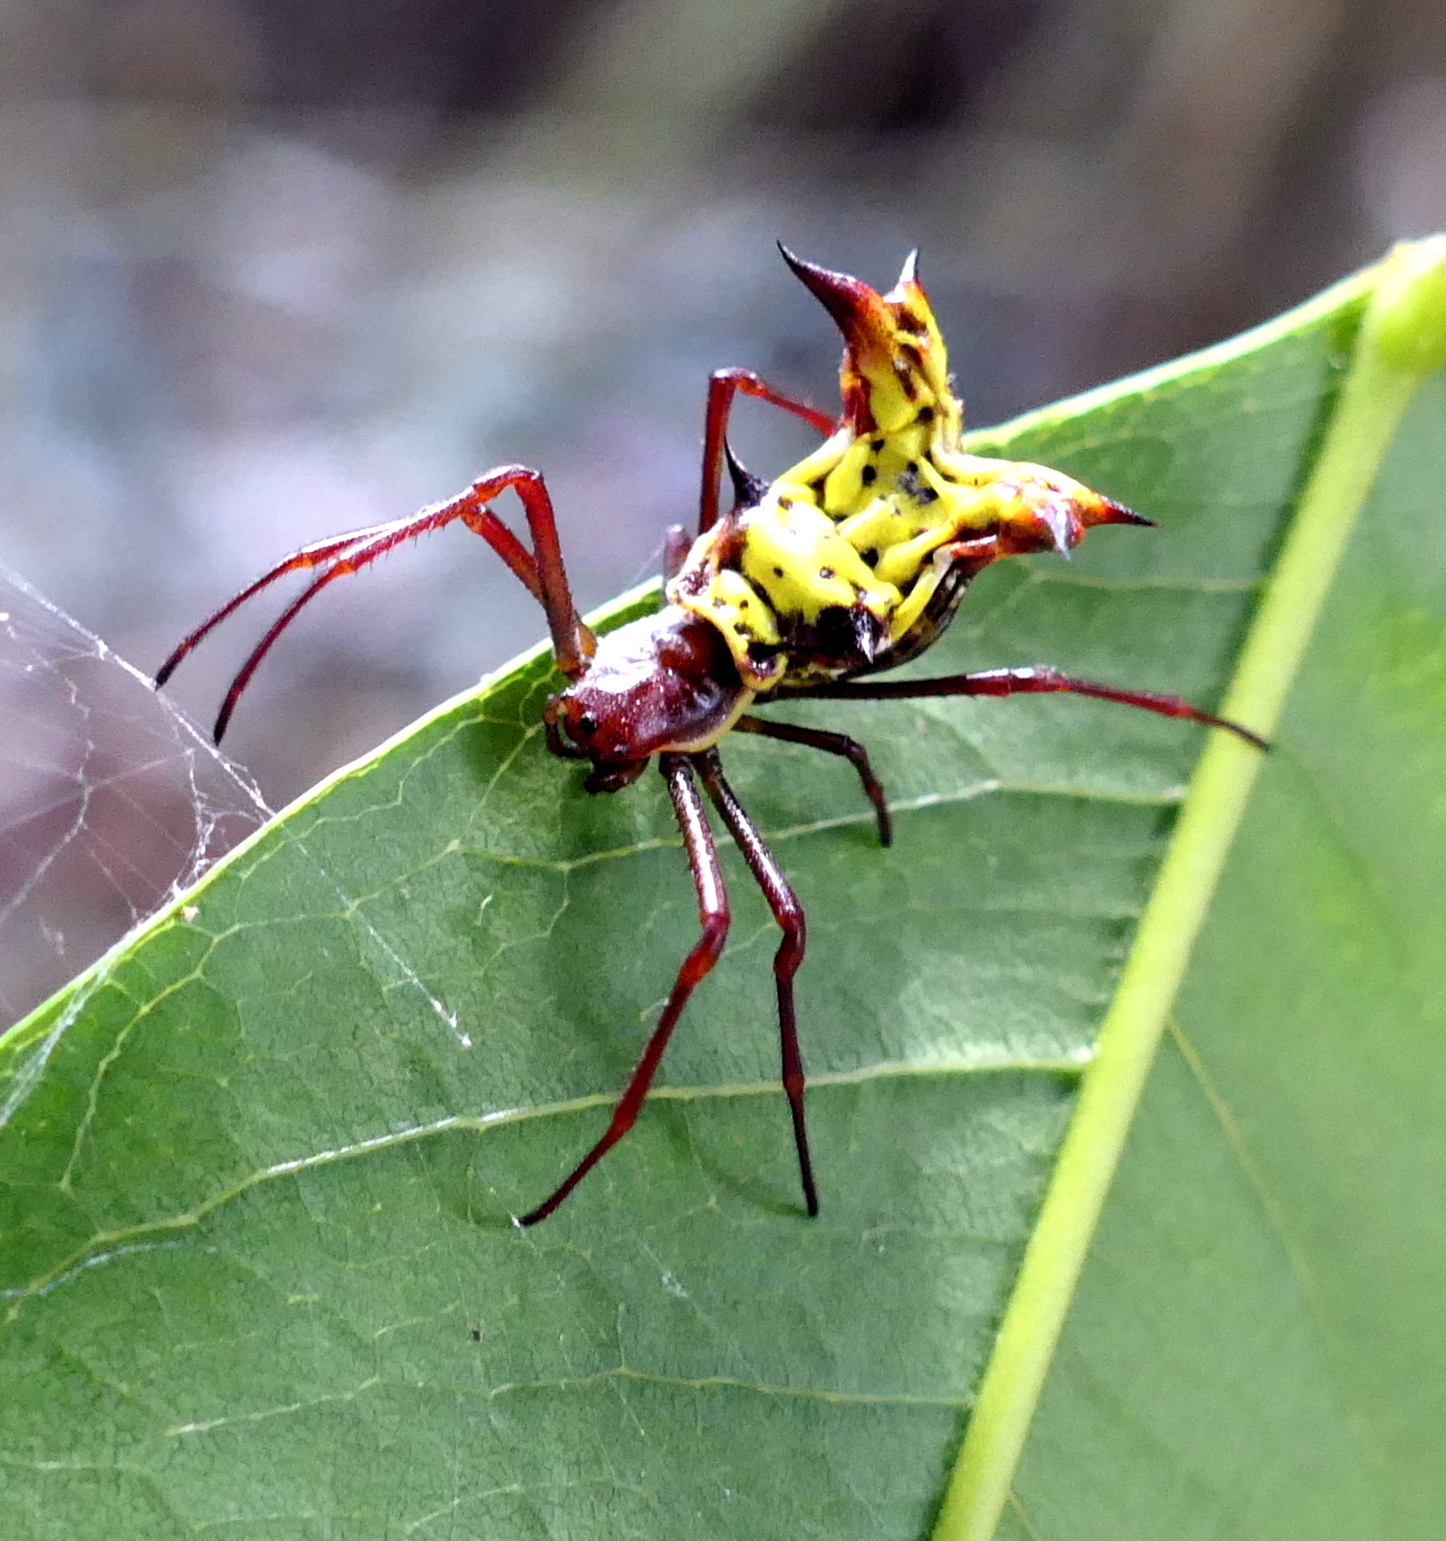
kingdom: Animalia
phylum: Arthropoda
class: Arachnida
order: Araneae
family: Araneidae
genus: Micrathena
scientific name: Micrathena fissispina
